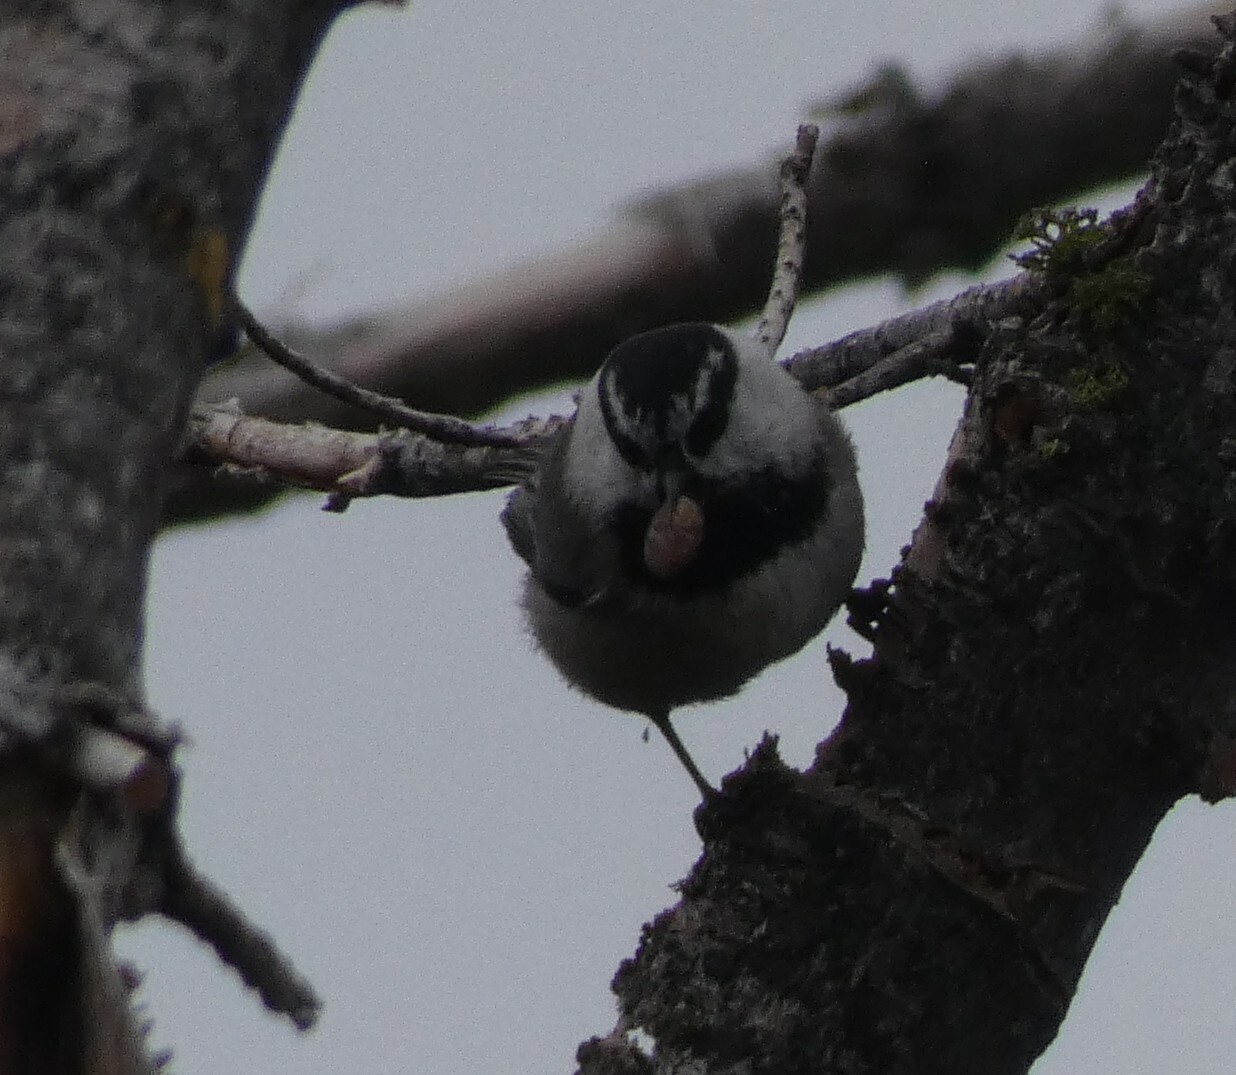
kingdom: Animalia
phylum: Chordata
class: Aves
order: Passeriformes
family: Paridae
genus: Poecile
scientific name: Poecile gambeli
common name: Mountain chickadee
